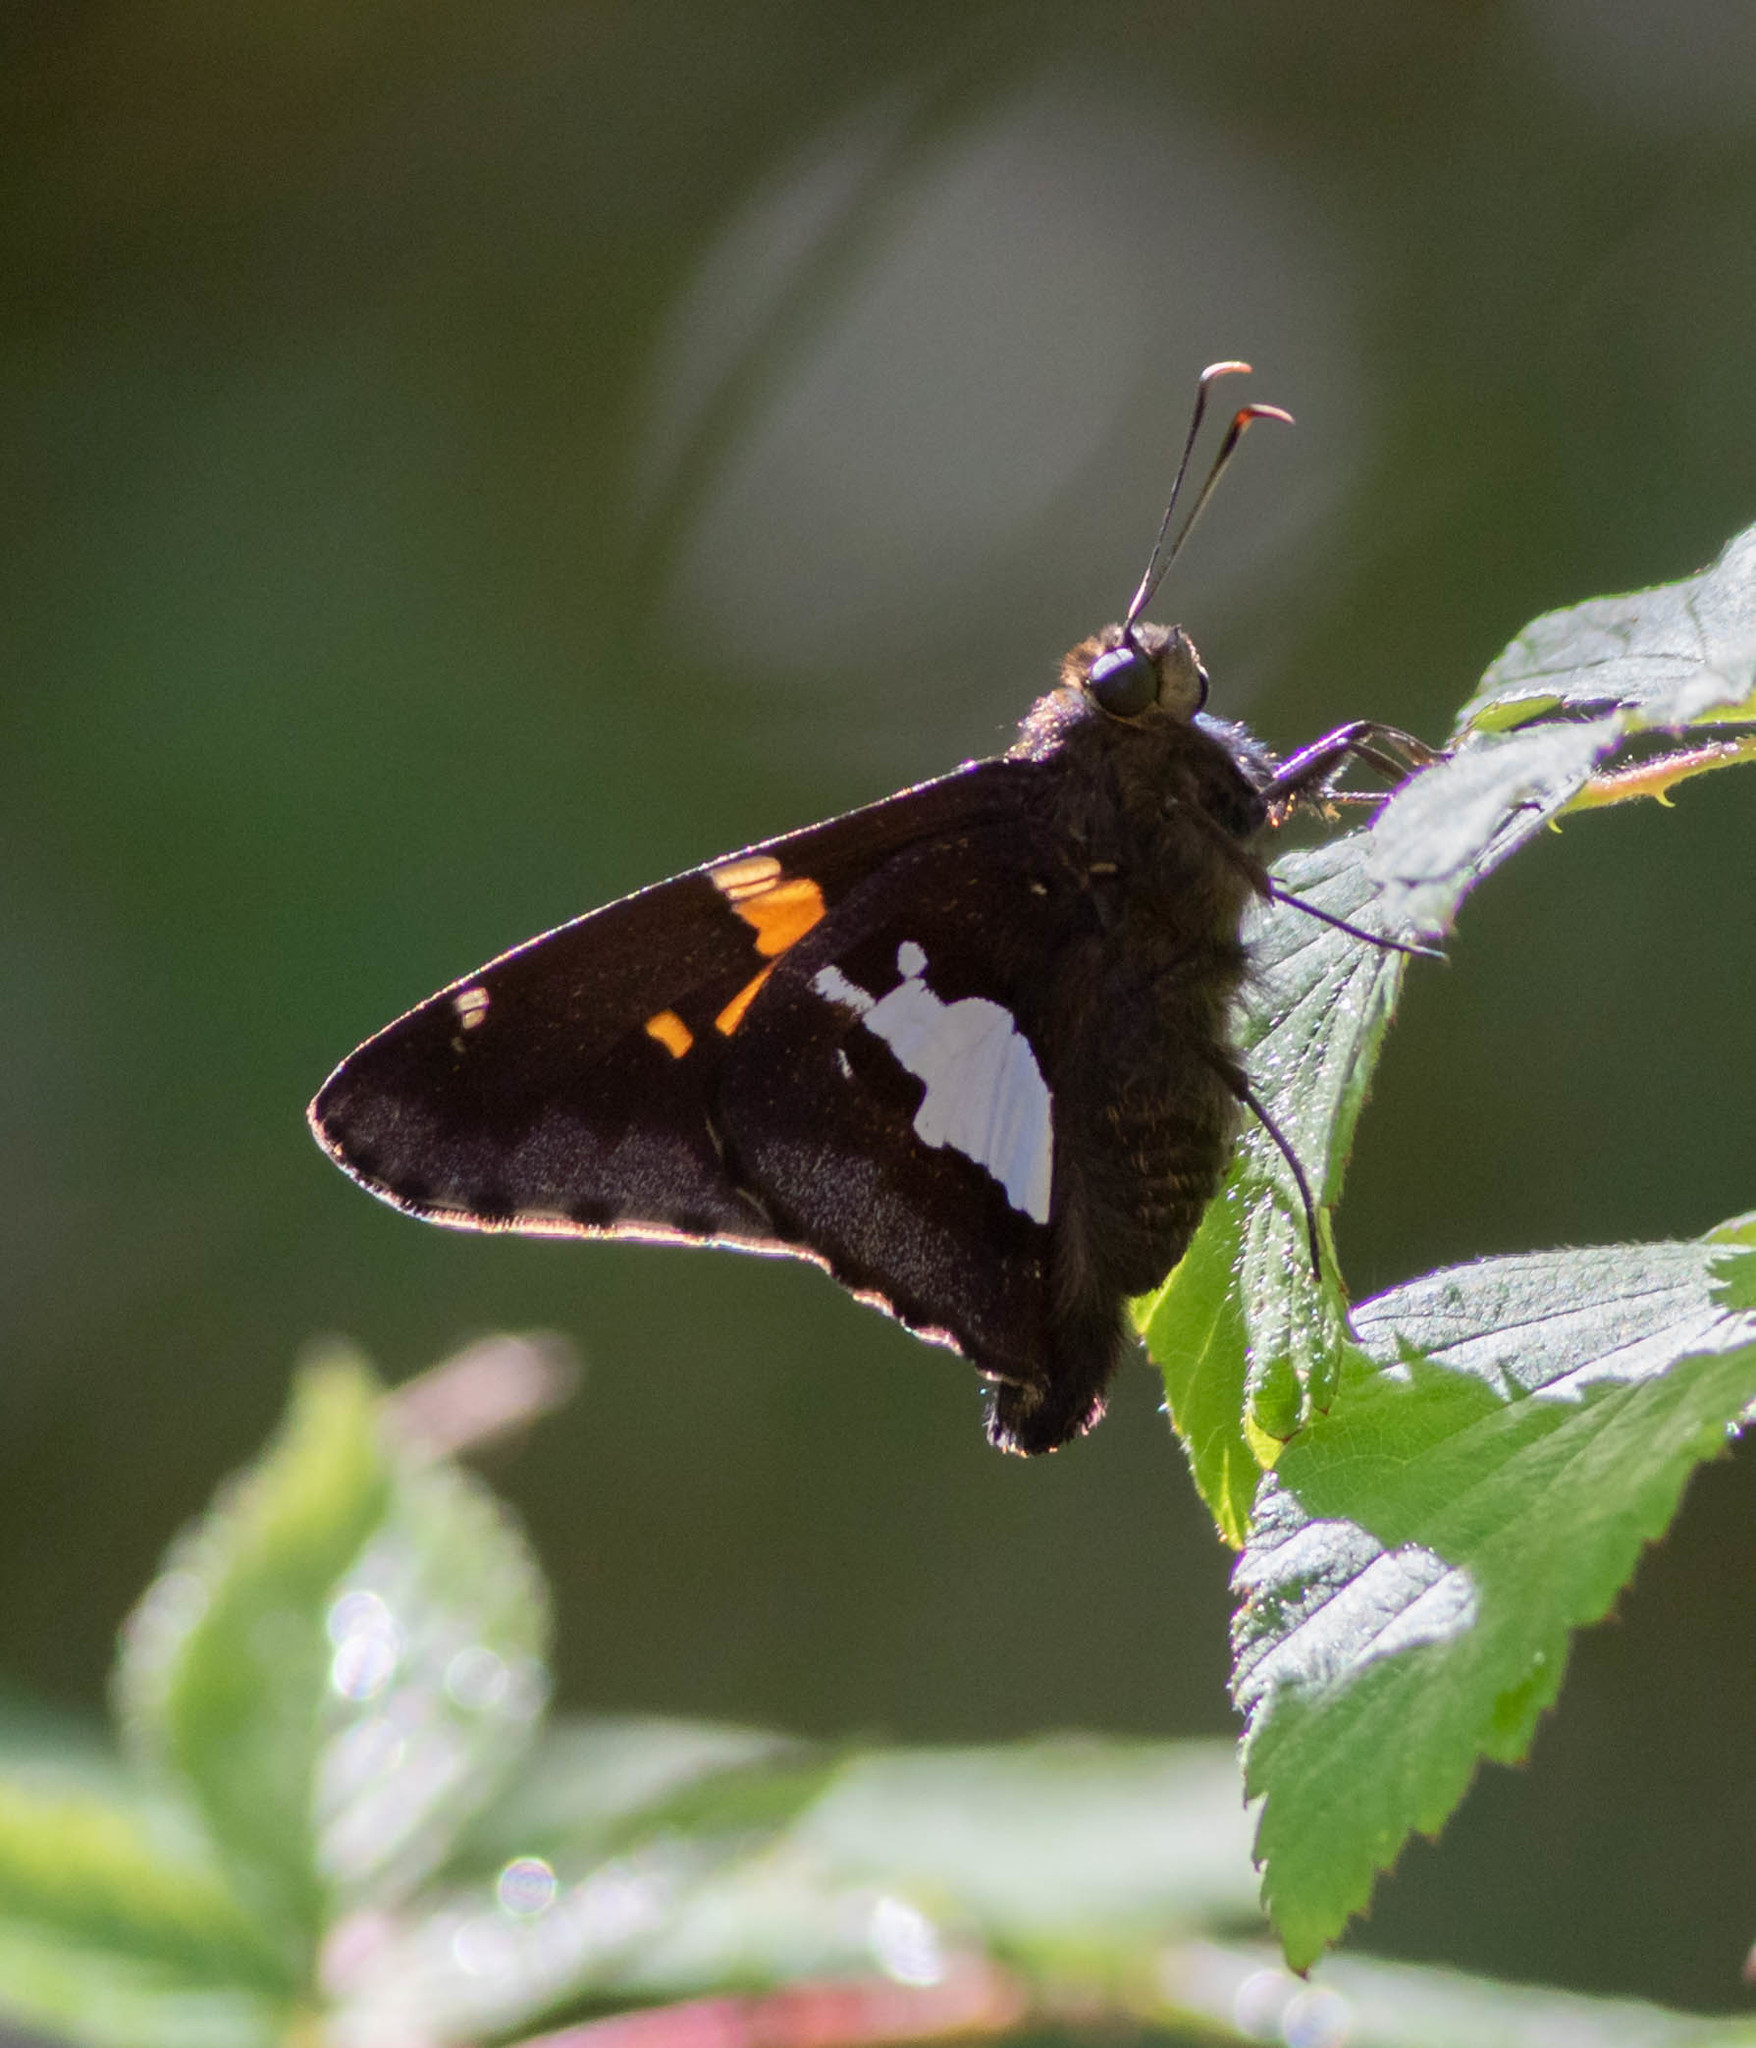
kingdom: Animalia
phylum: Arthropoda
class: Insecta
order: Lepidoptera
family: Hesperiidae
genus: Epargyreus
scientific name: Epargyreus clarus
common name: Silver-spotted skipper
